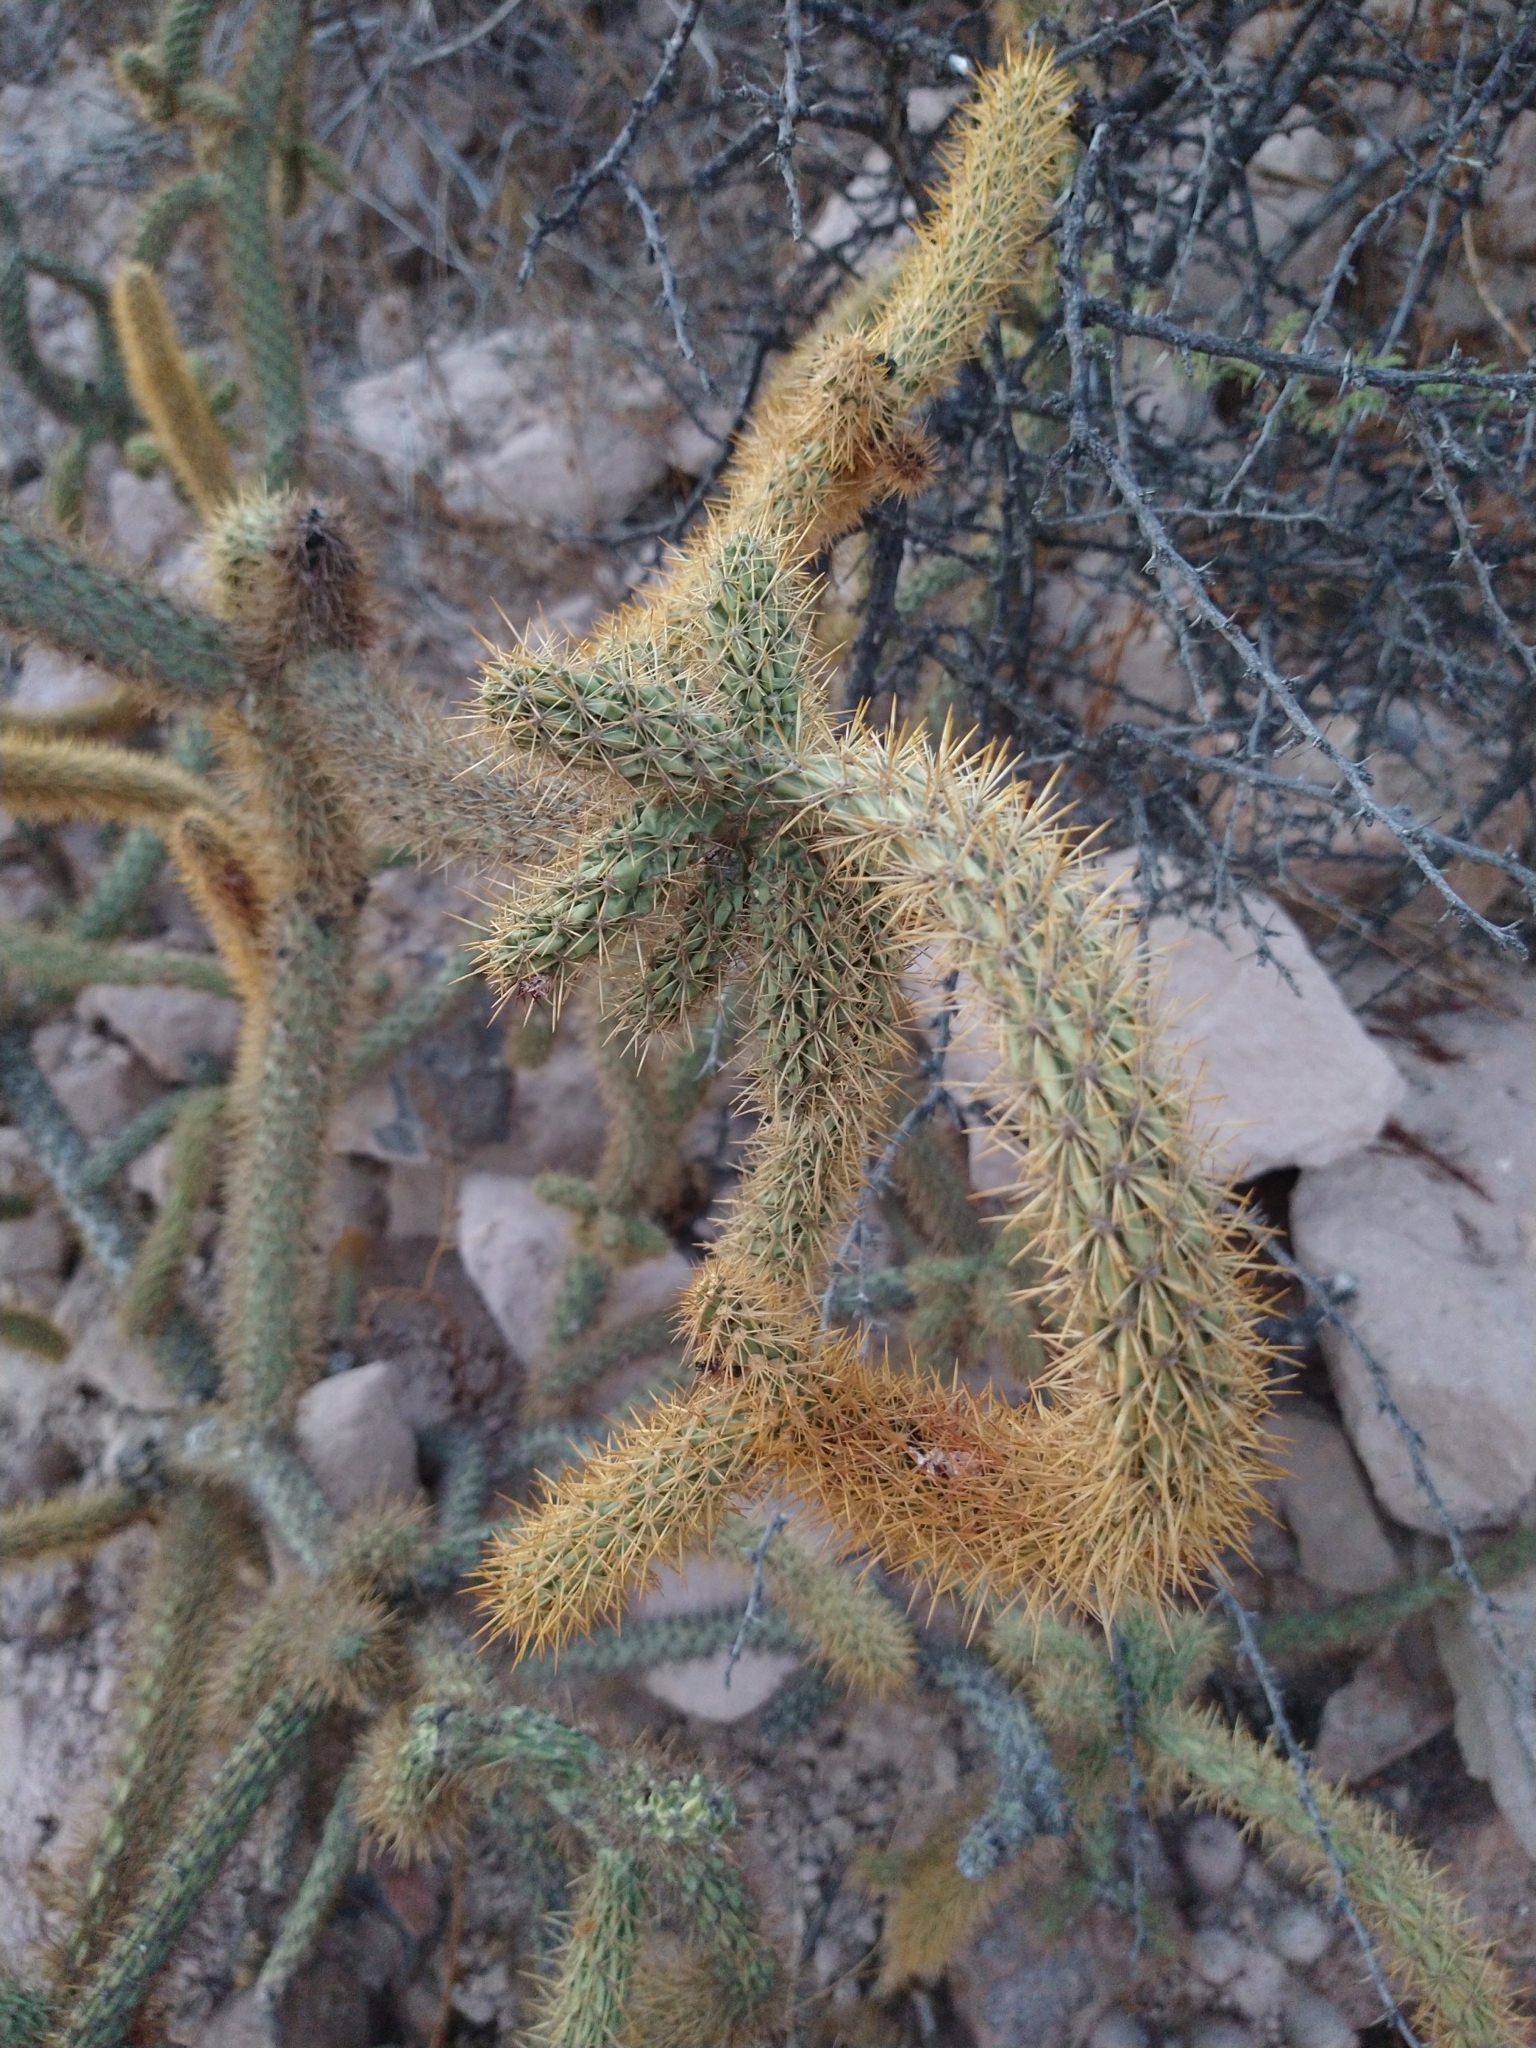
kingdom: Plantae
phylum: Tracheophyta
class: Magnoliopsida
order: Caryophyllales
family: Cactaceae
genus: Cylindropuntia
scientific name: Cylindropuntia alcahes
